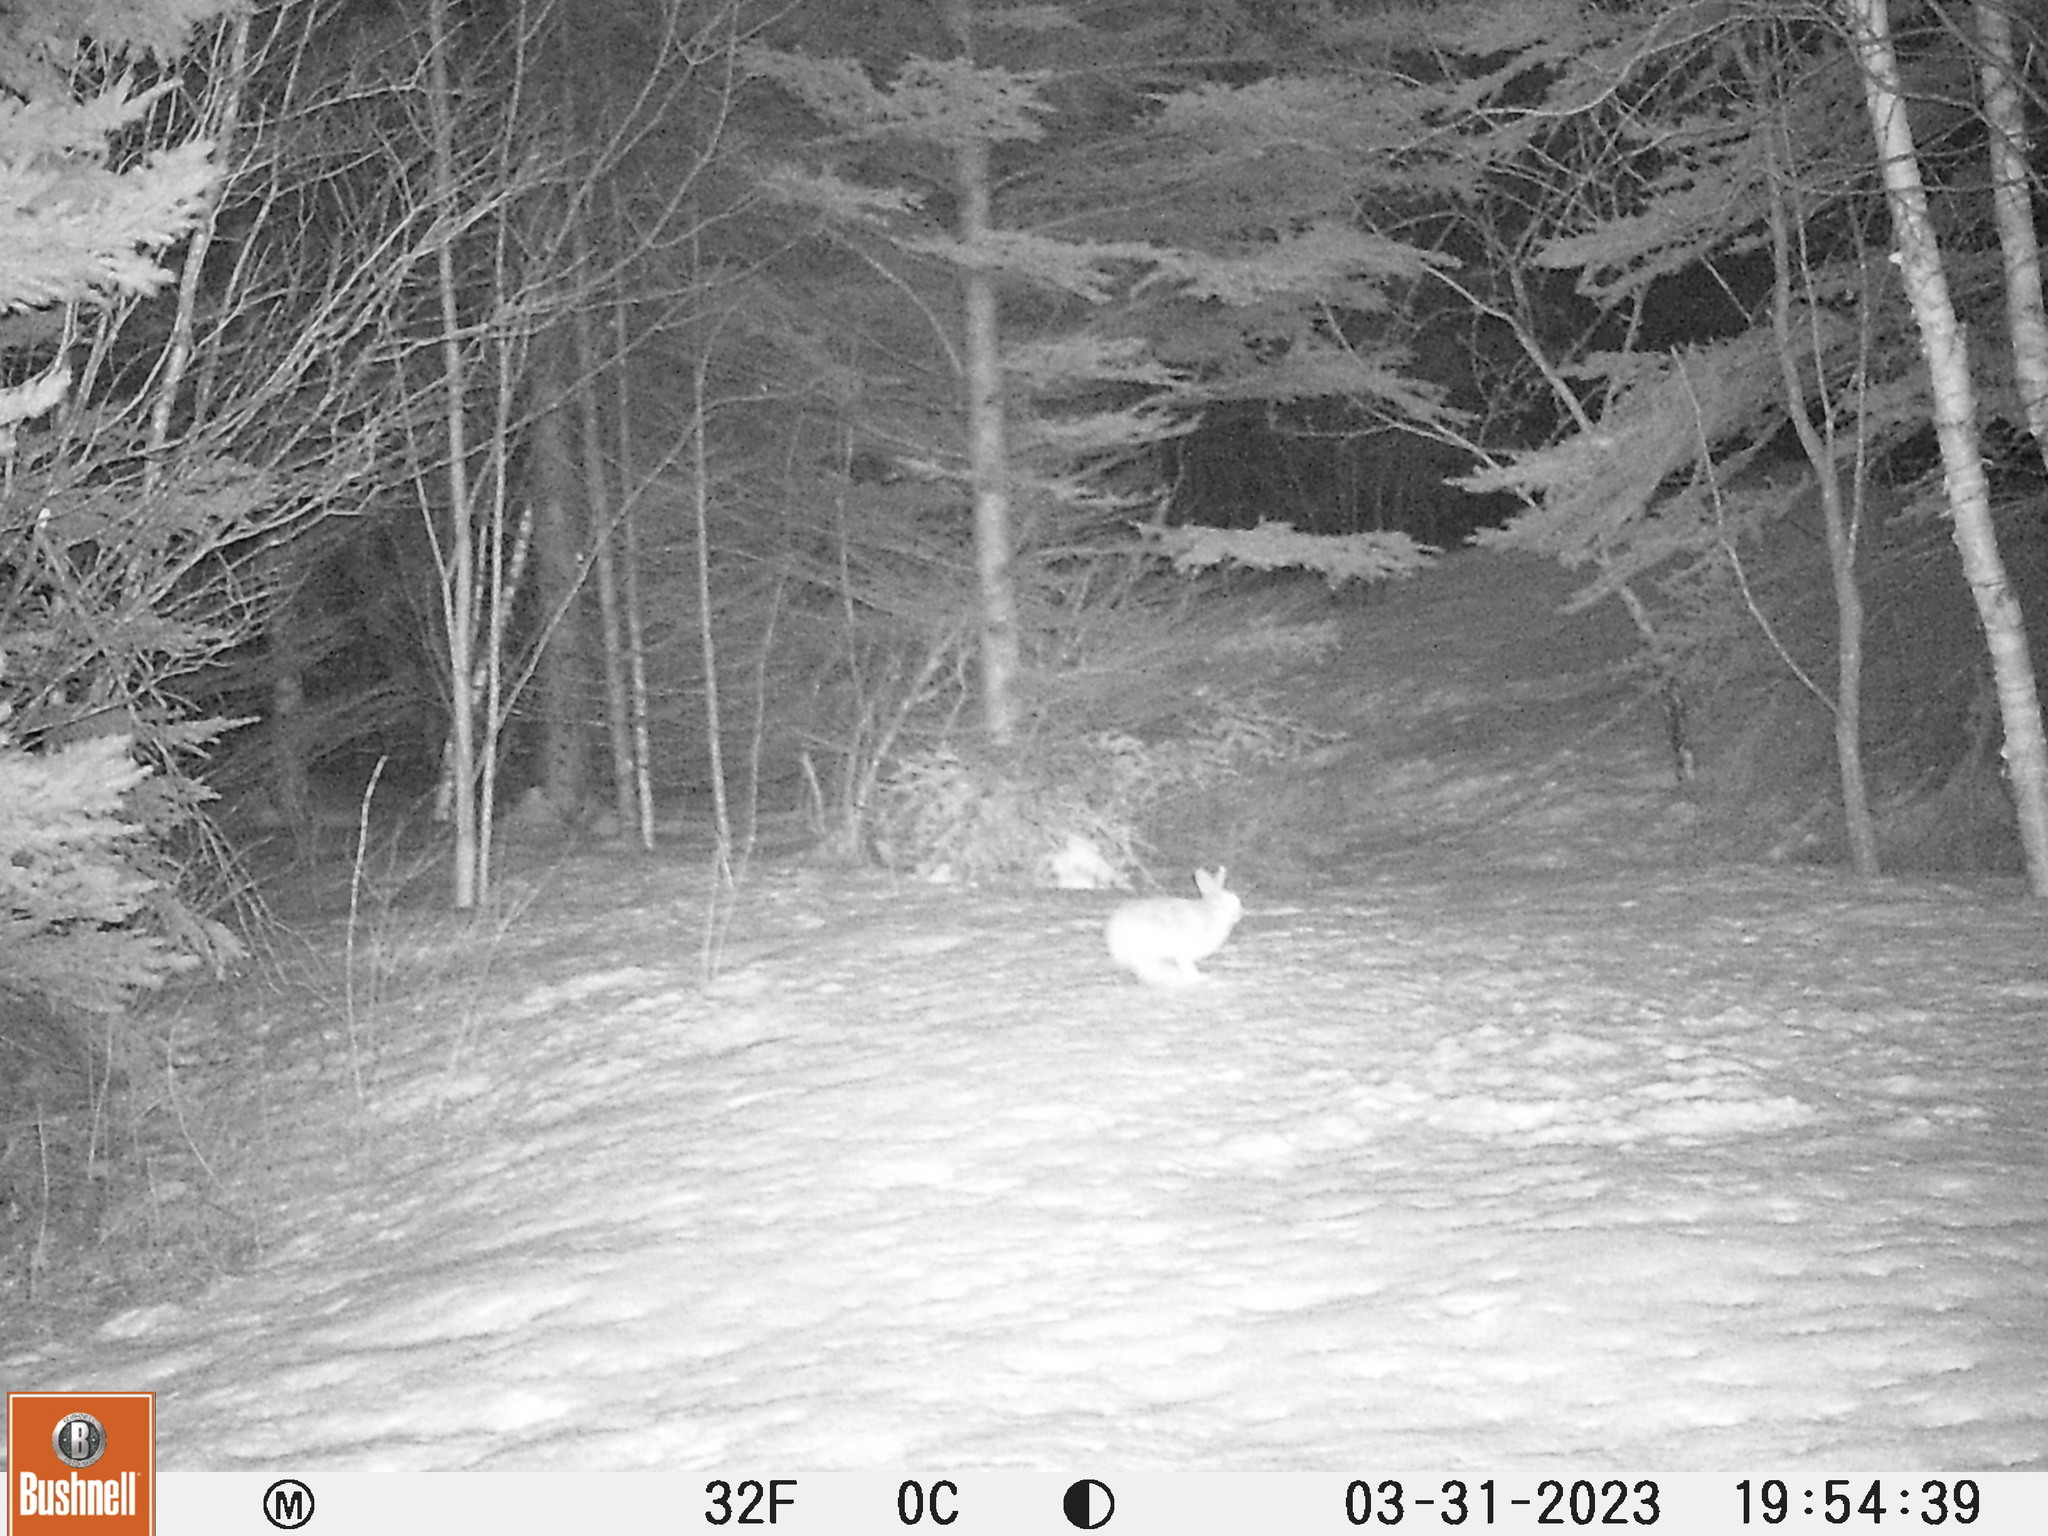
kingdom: Animalia
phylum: Chordata
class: Mammalia
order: Lagomorpha
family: Leporidae
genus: Lepus
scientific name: Lepus americanus
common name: Snowshoe hare
